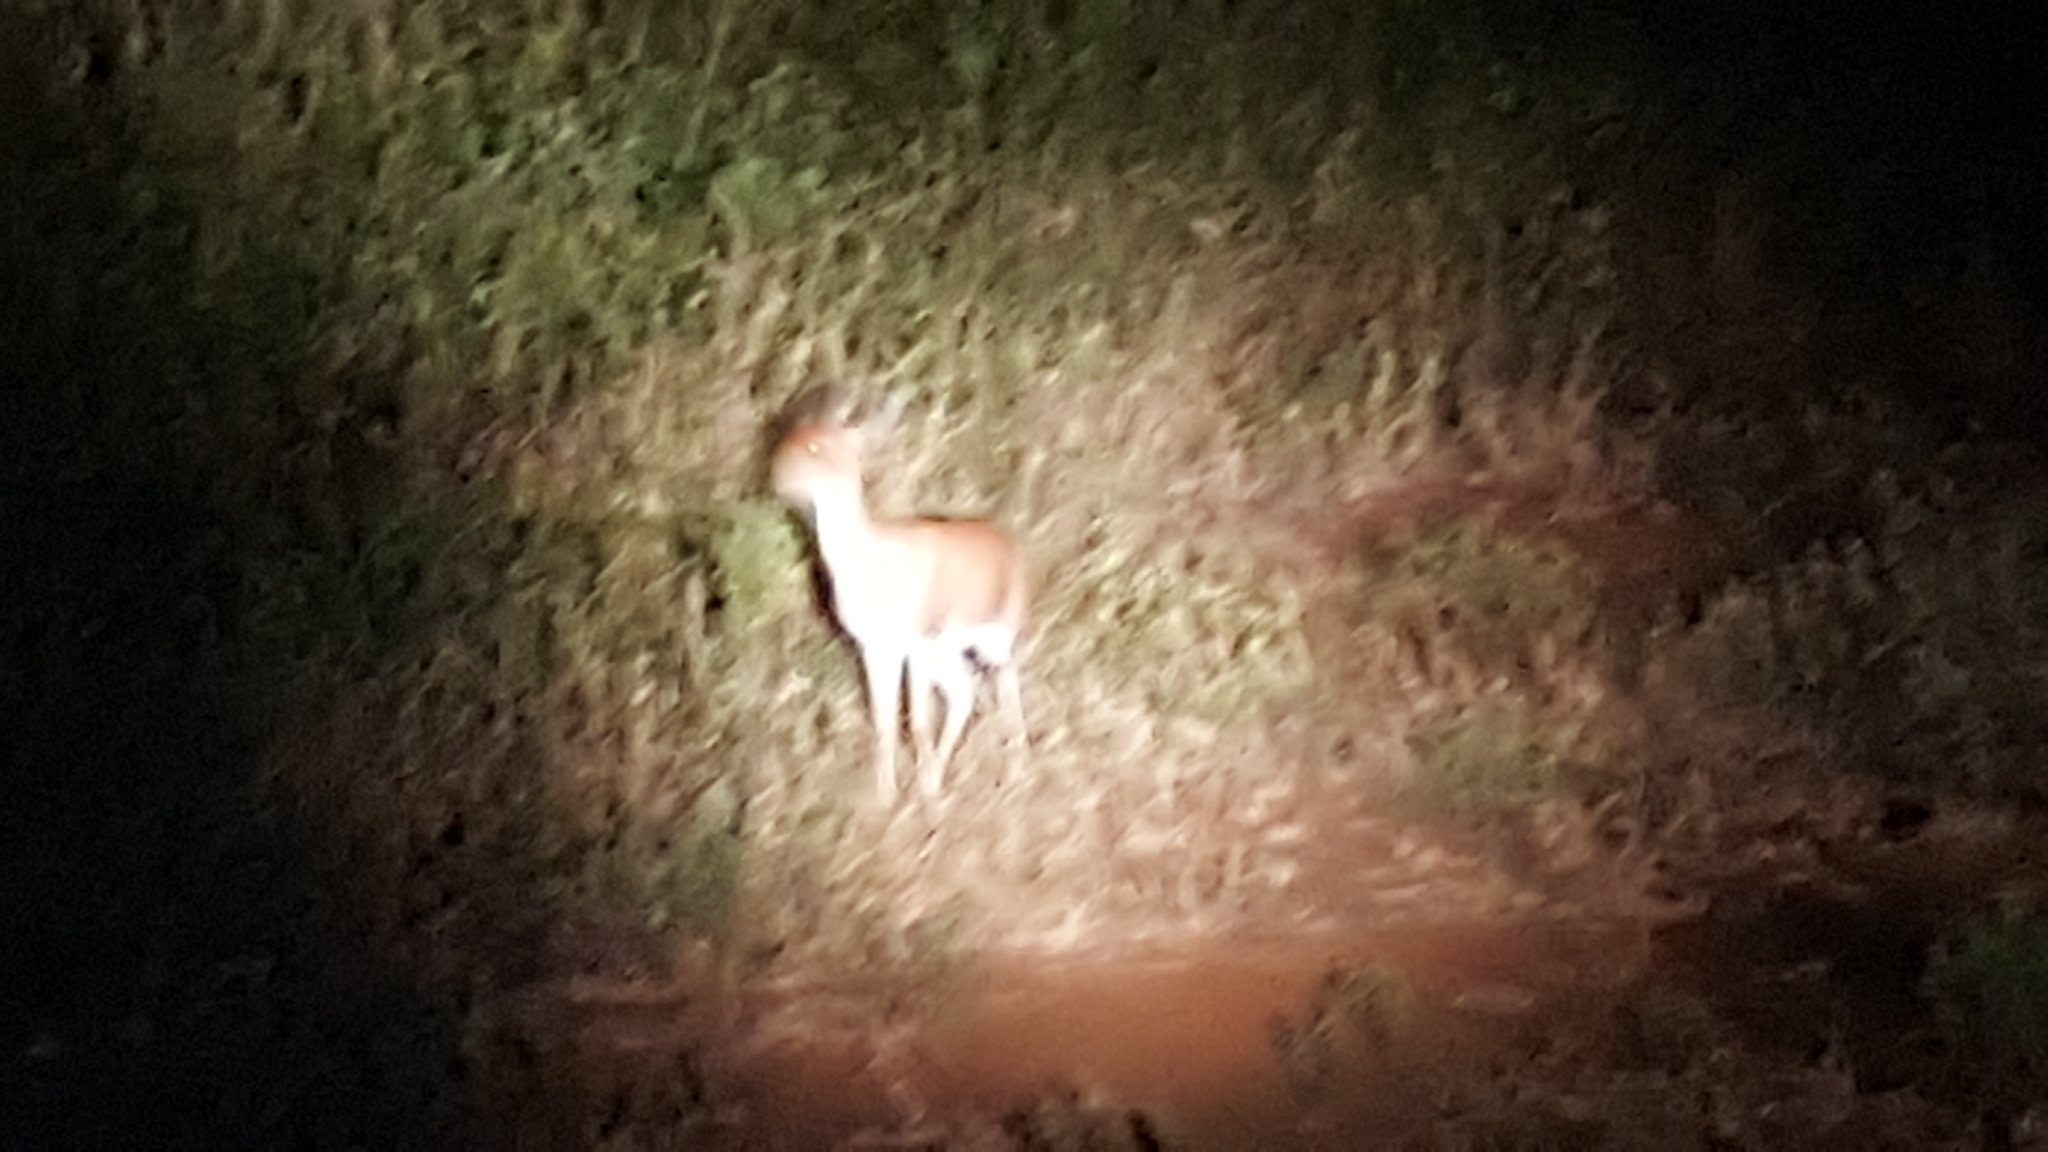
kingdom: Animalia
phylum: Chordata
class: Mammalia
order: Artiodactyla
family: Bovidae
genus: Raphicerus
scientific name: Raphicerus campestris
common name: Steenbok
